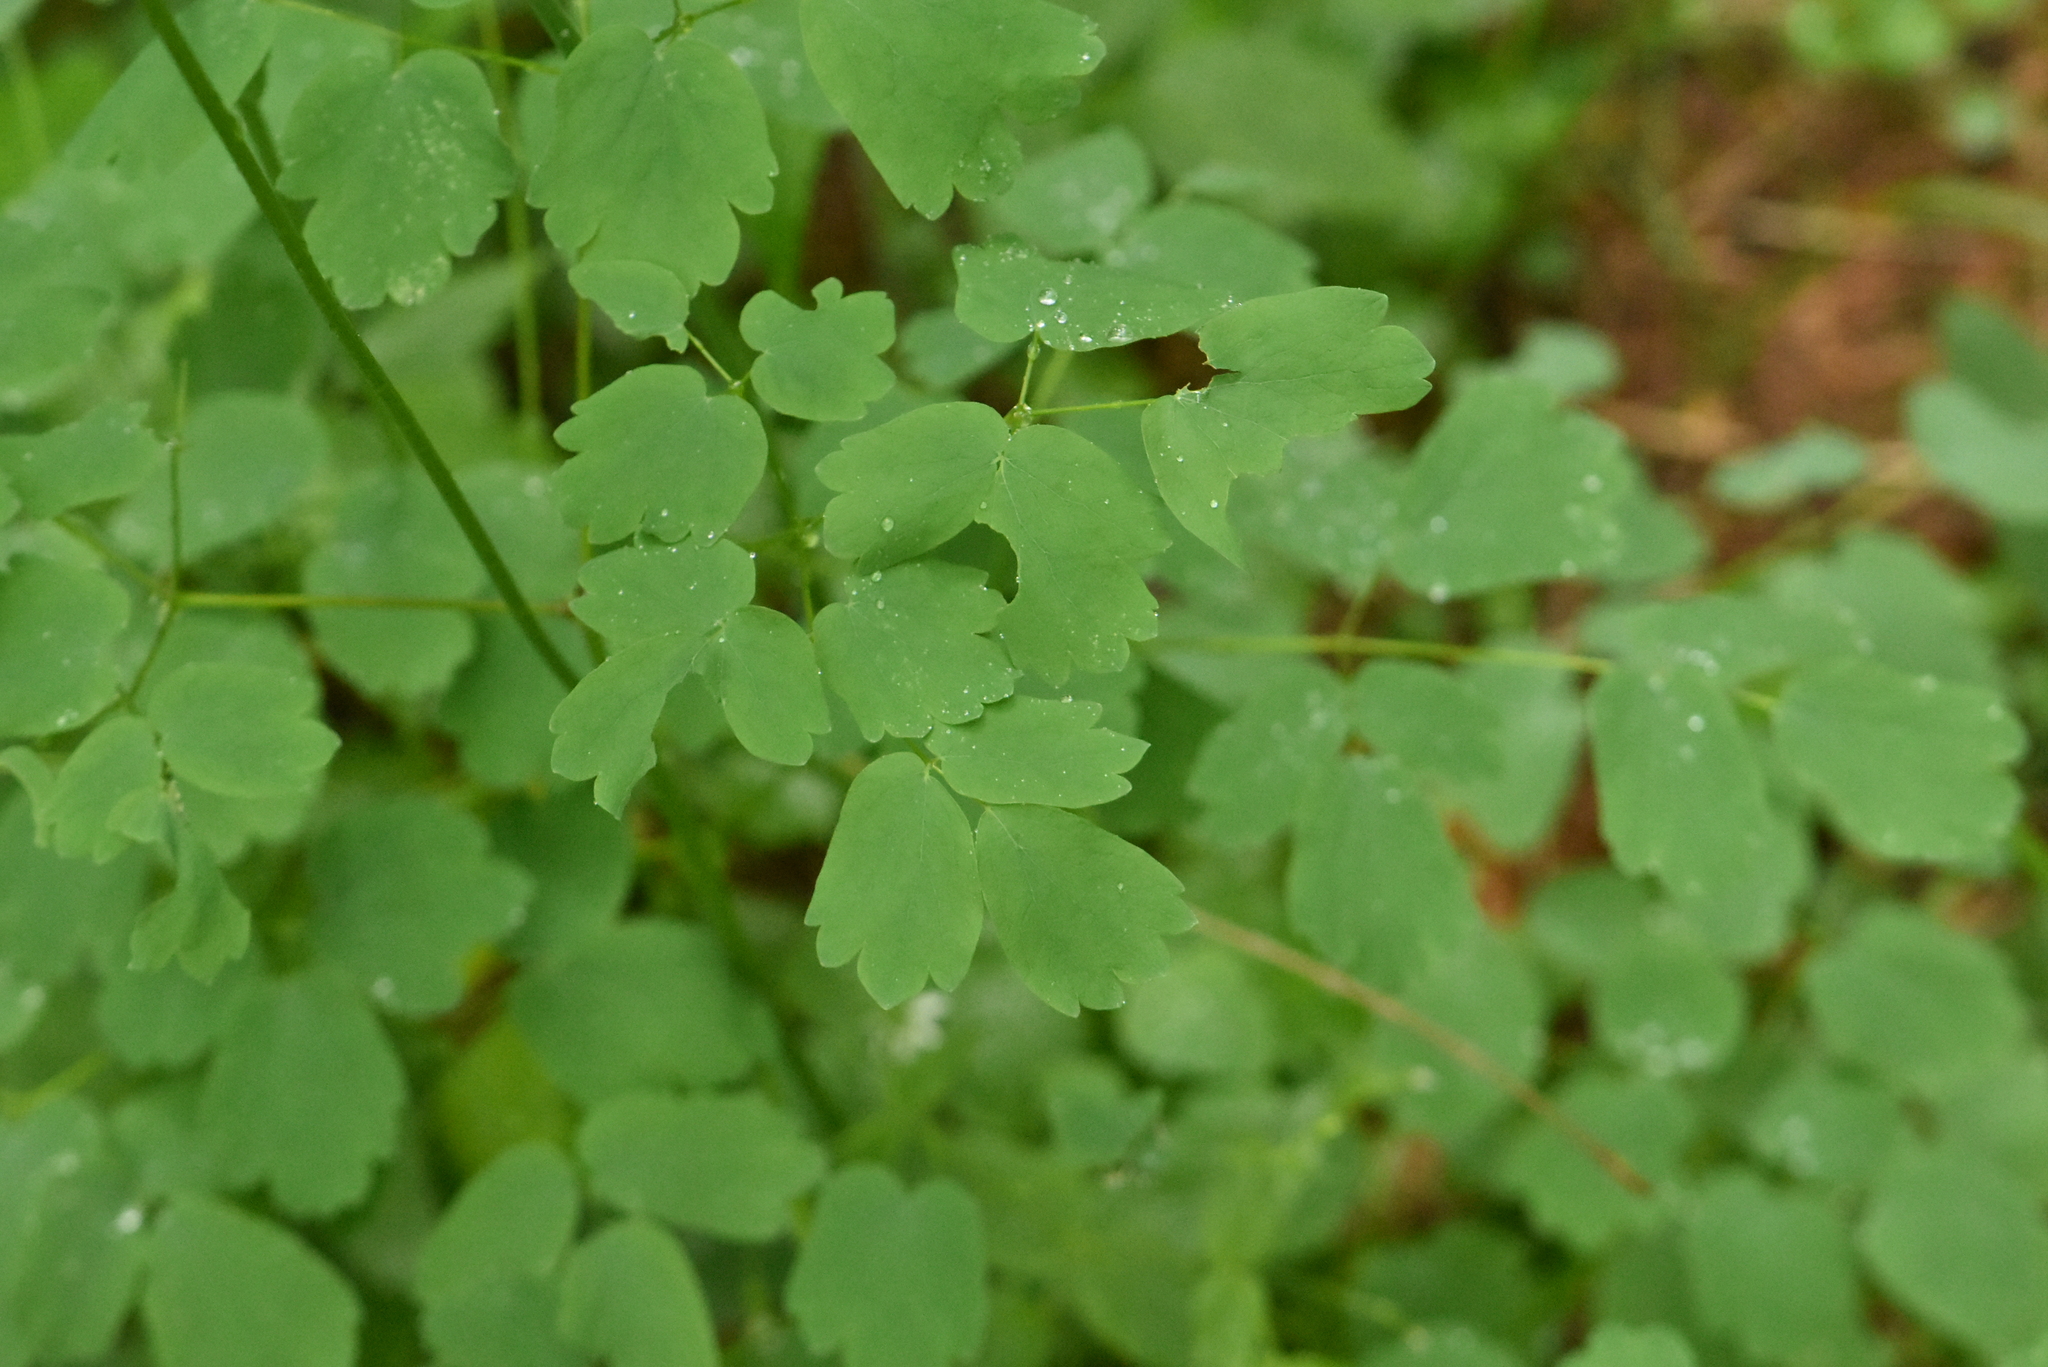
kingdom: Plantae
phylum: Tracheophyta
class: Magnoliopsida
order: Ranunculales
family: Ranunculaceae
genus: Thalictrum
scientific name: Thalictrum aquilegiifolium
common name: French meadow-rue
